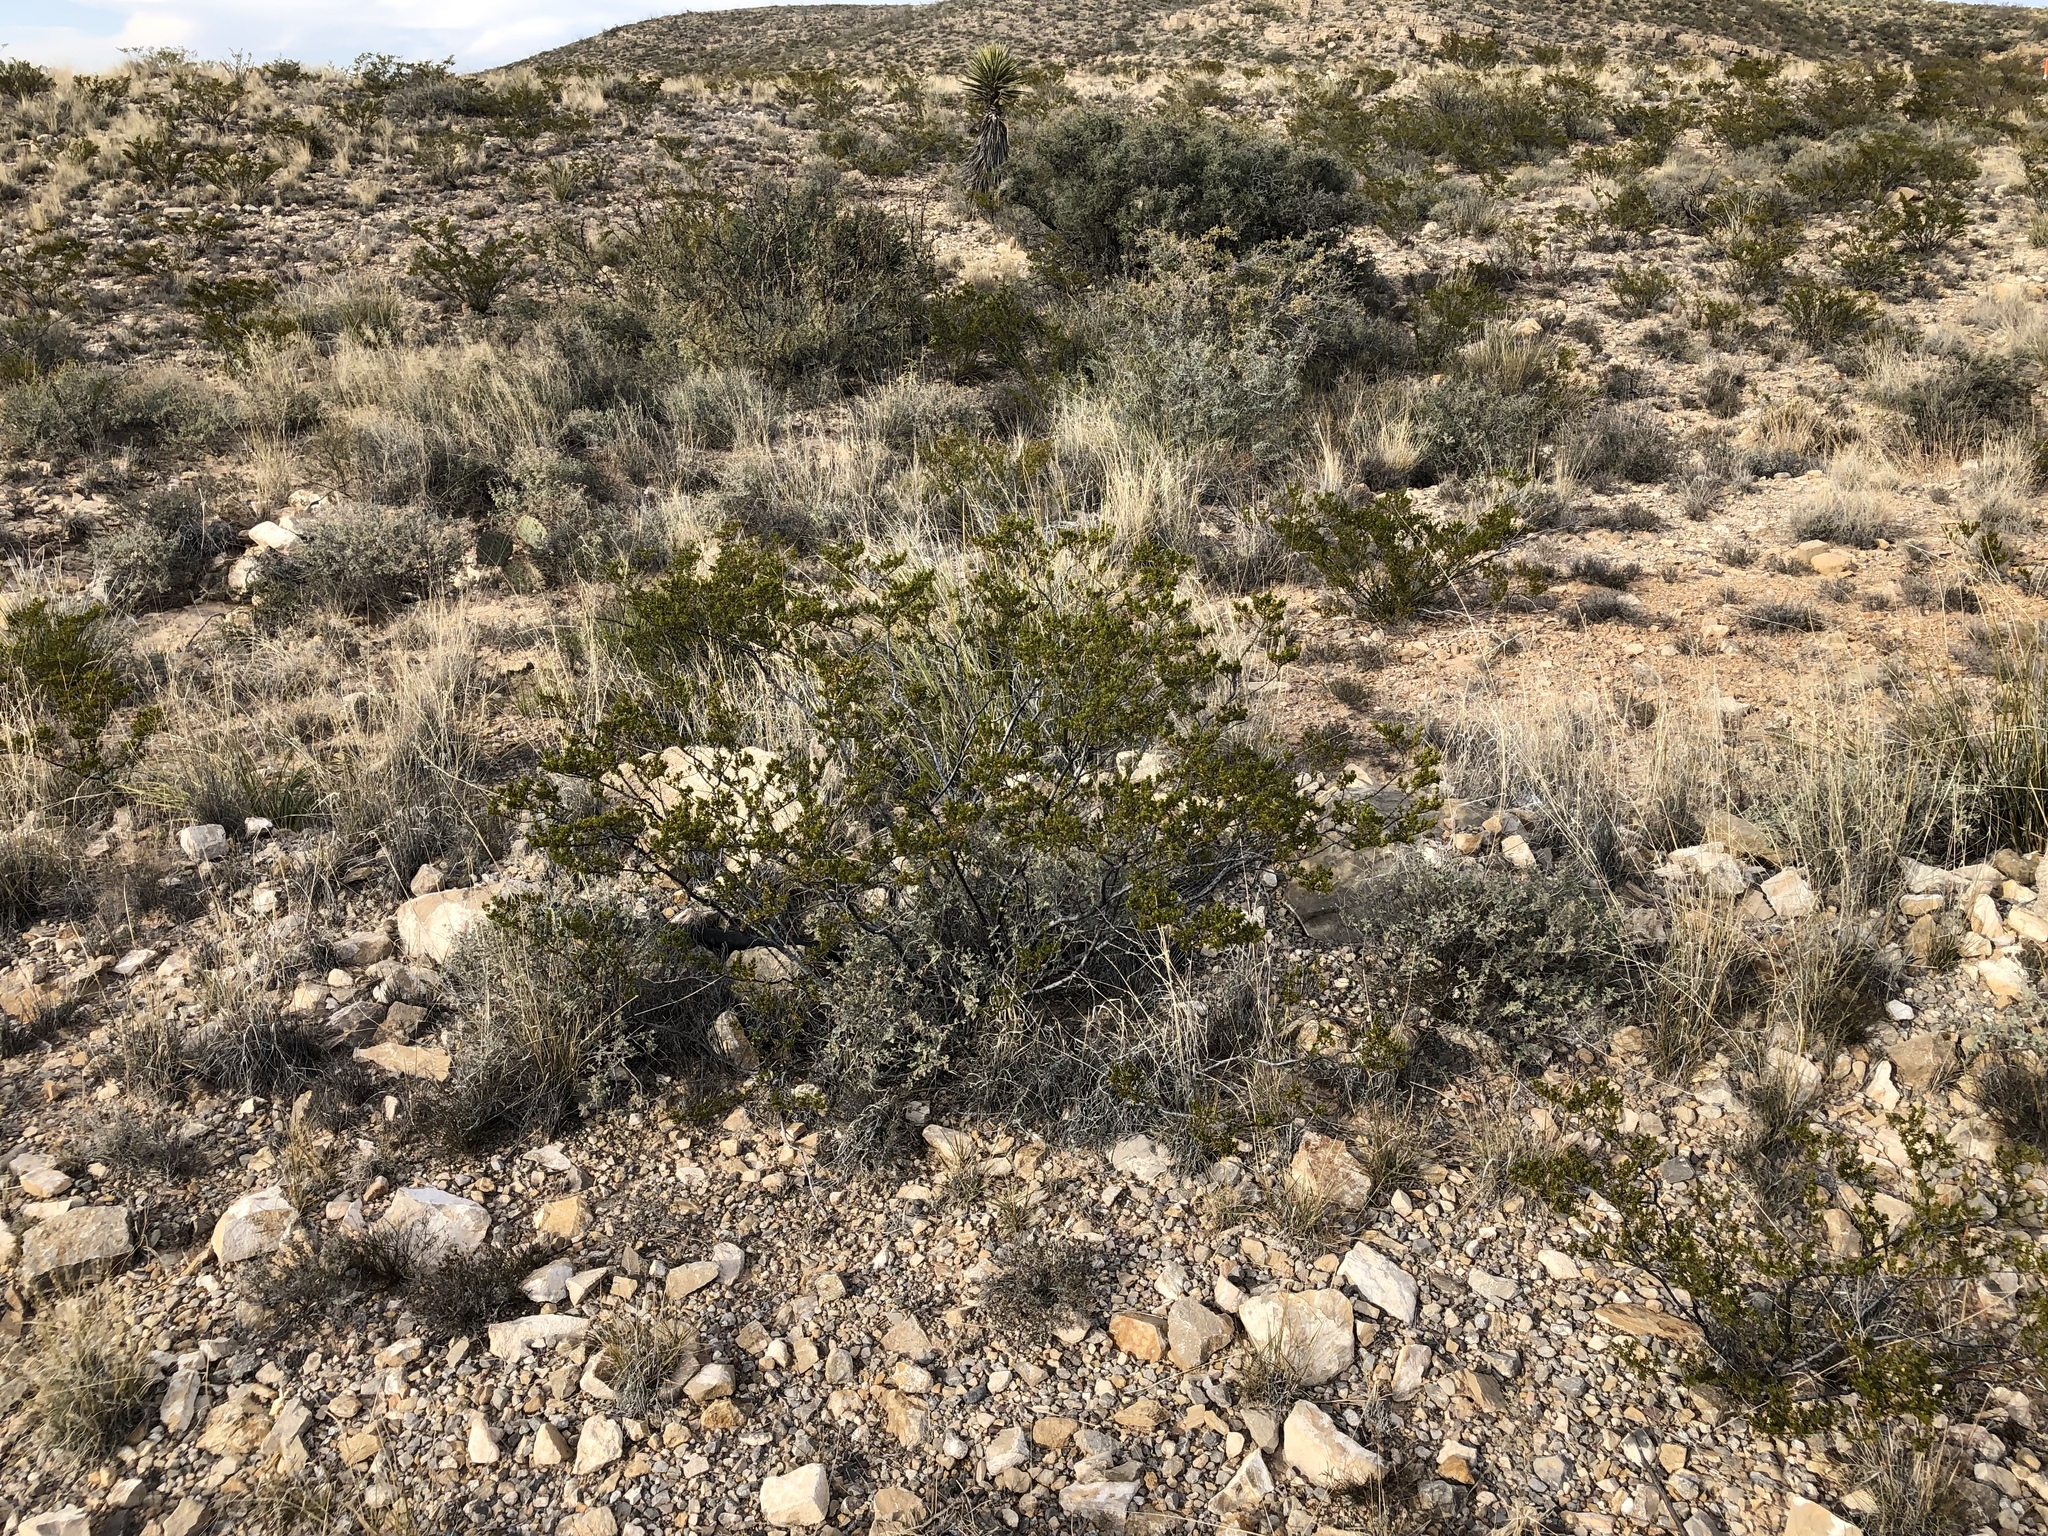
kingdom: Plantae
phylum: Tracheophyta
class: Magnoliopsida
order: Zygophyllales
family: Zygophyllaceae
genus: Larrea
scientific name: Larrea tridentata
